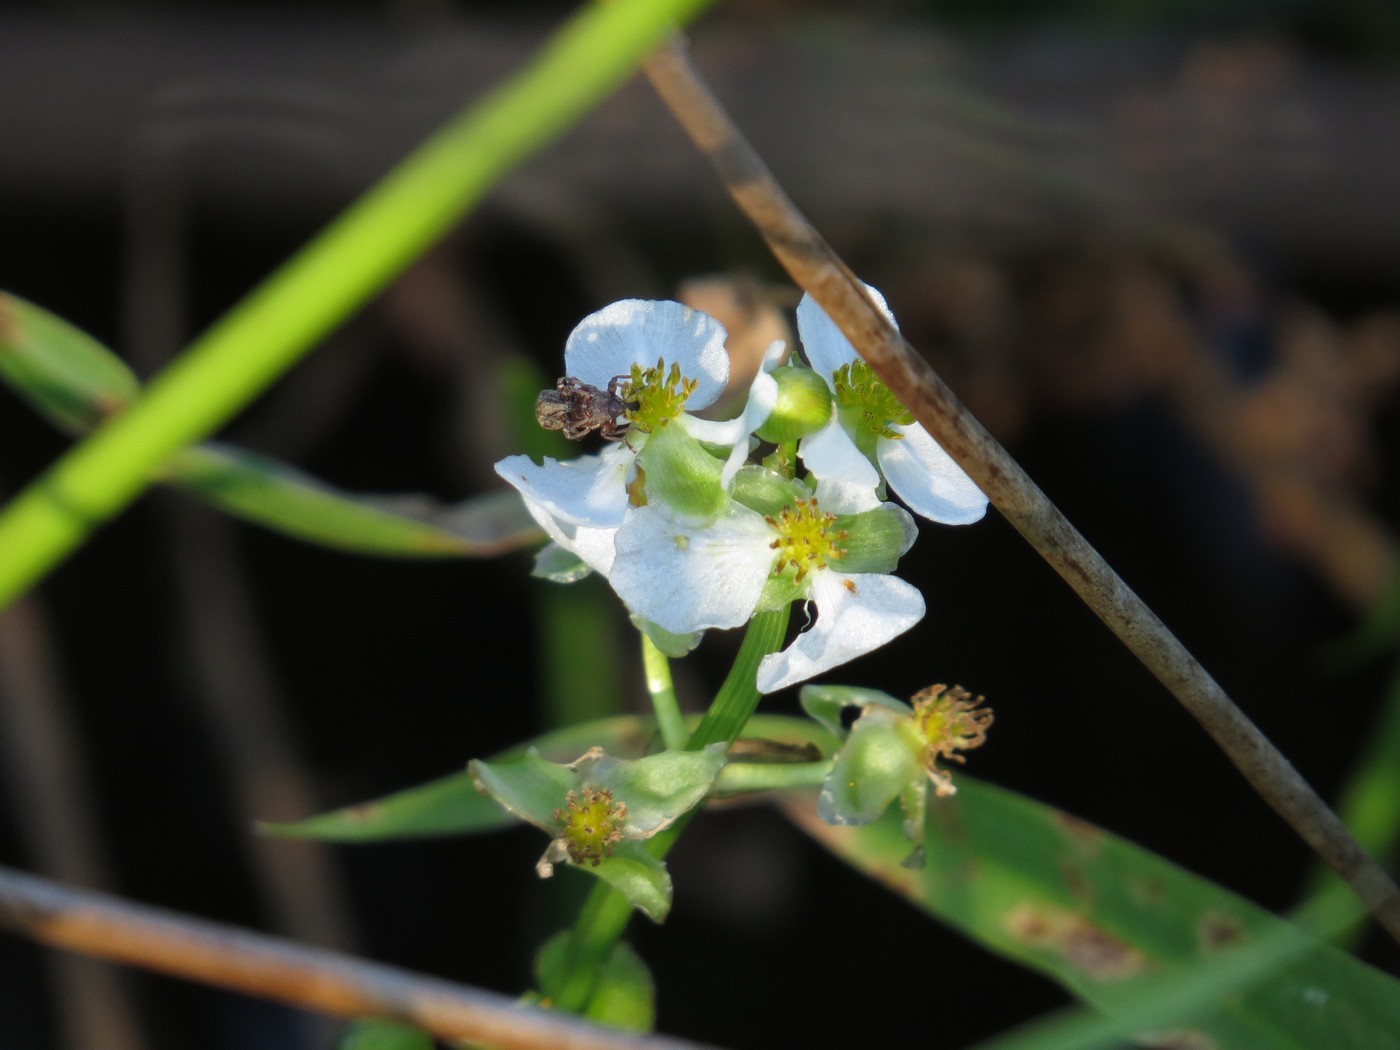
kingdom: Plantae
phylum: Tracheophyta
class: Liliopsida
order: Alismatales
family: Alismataceae
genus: Sagittaria
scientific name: Sagittaria latifolia
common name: Duck-potato
